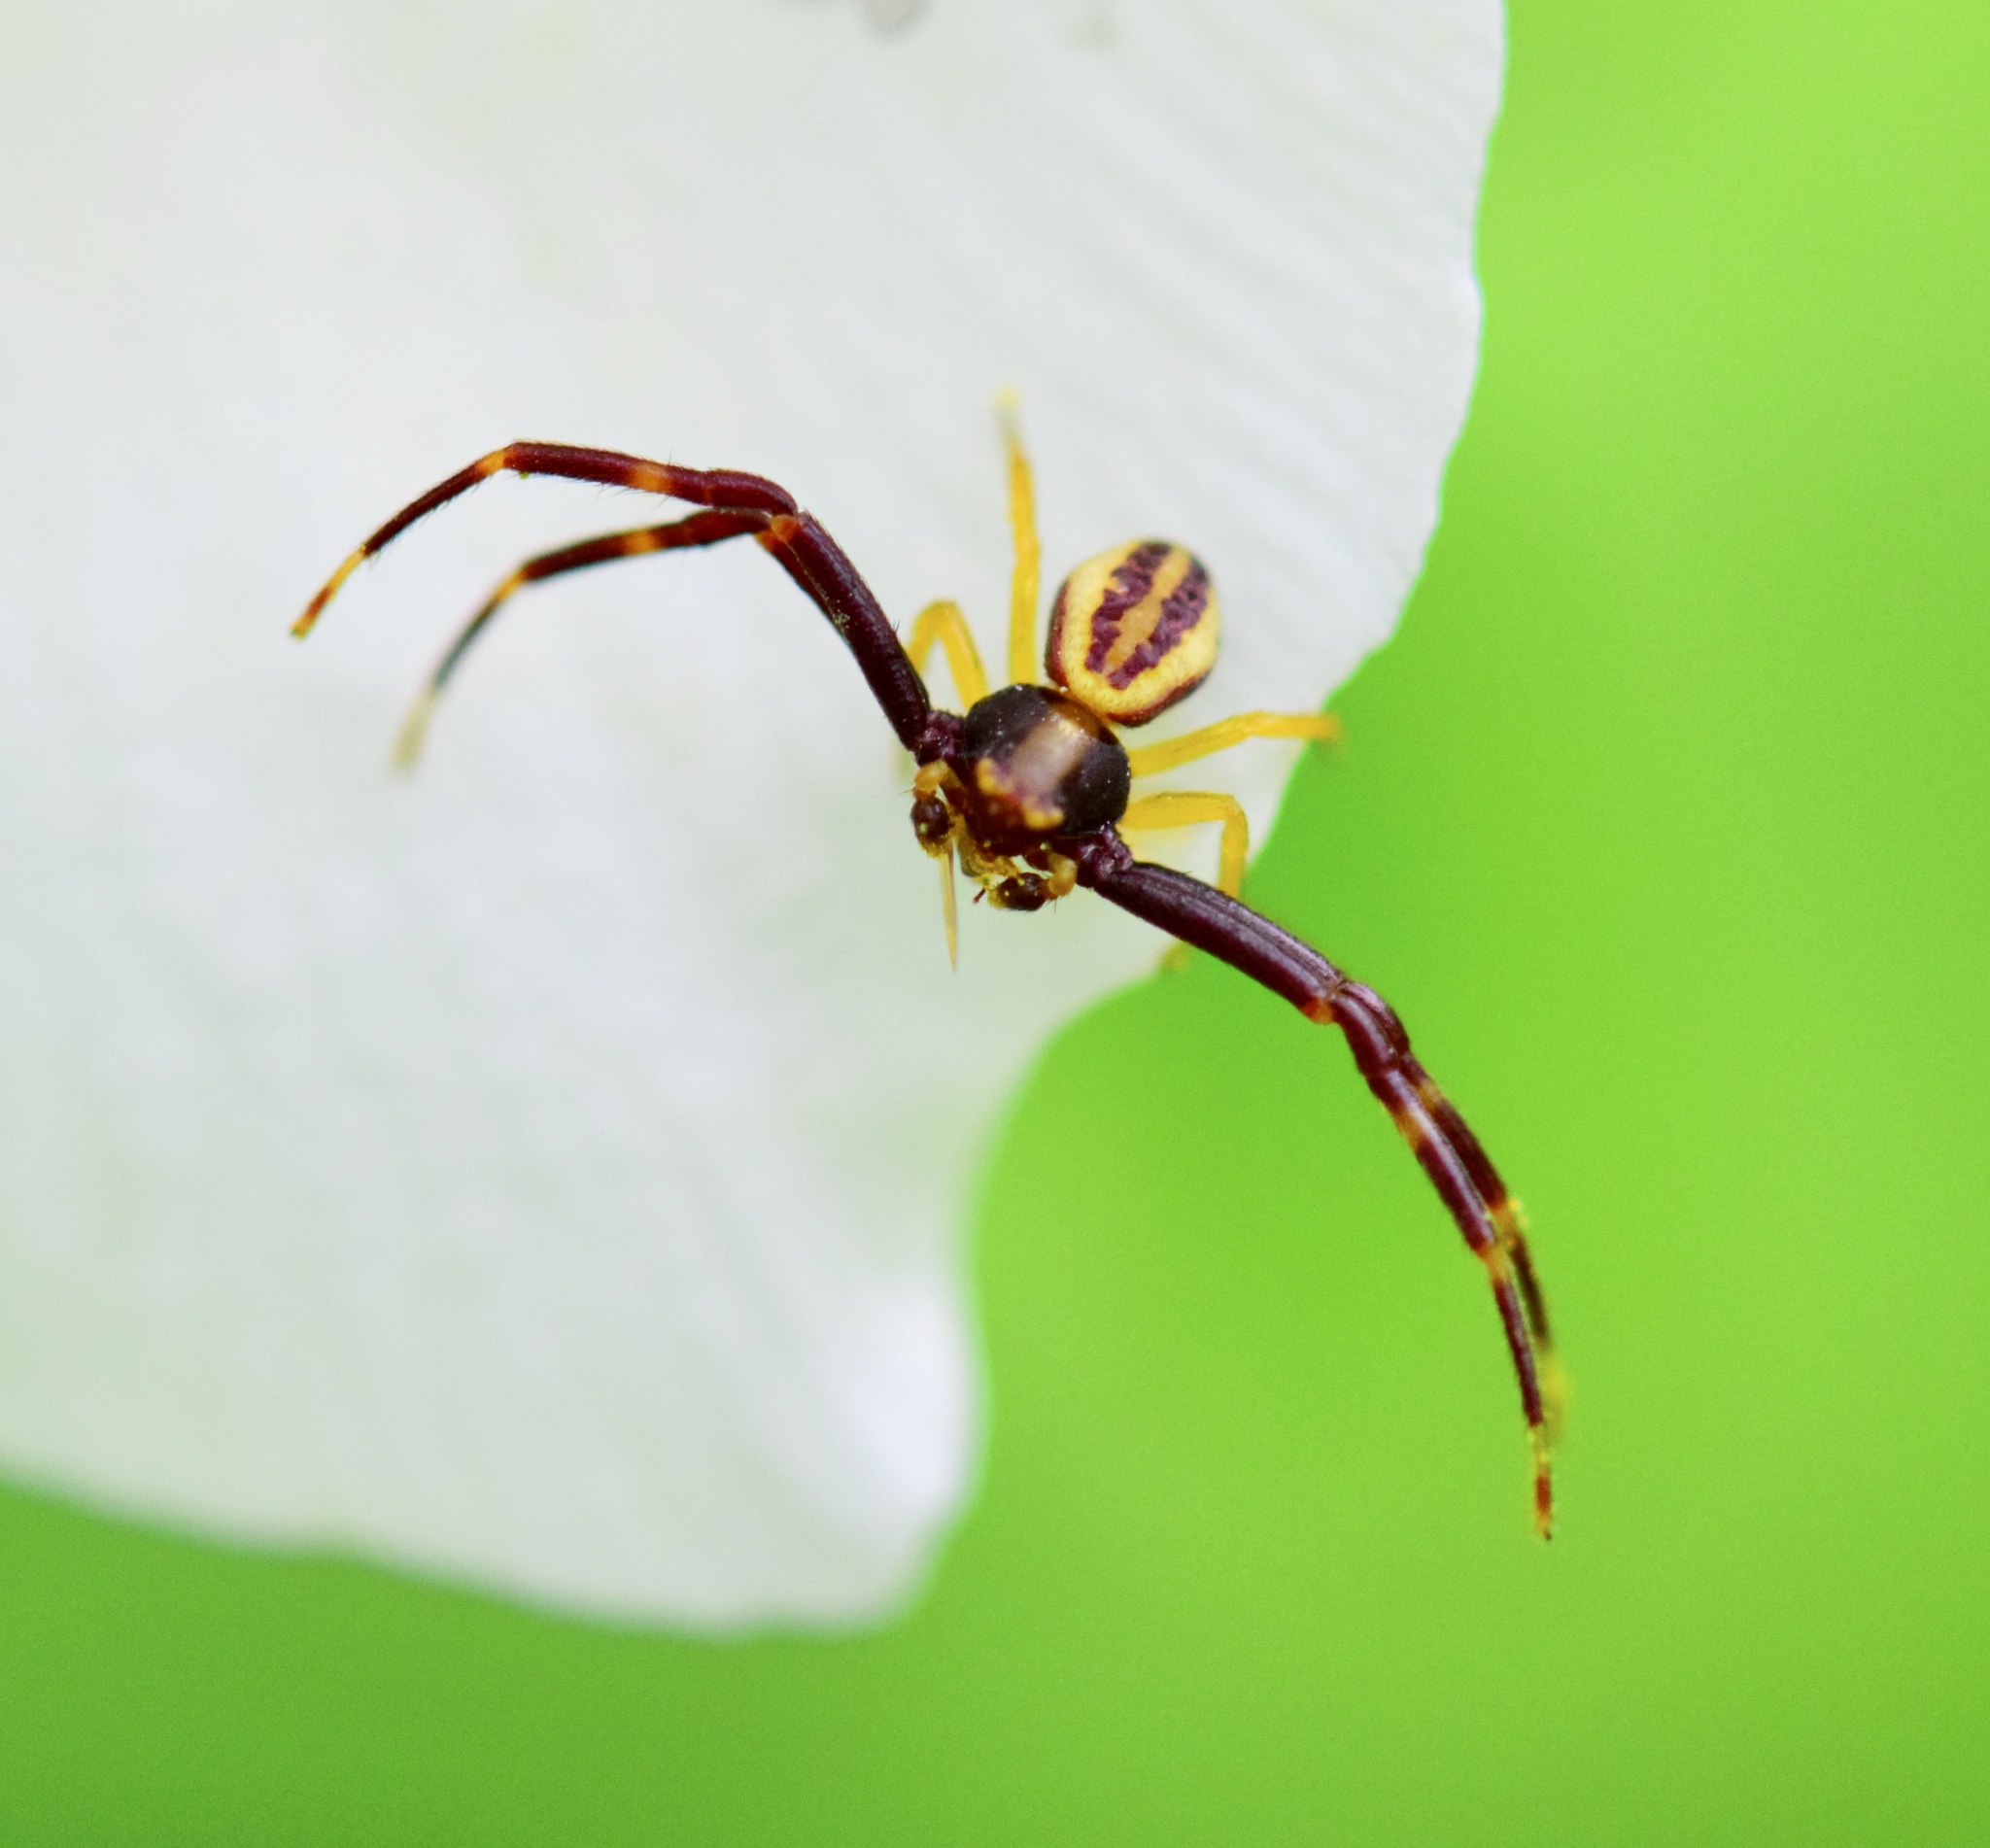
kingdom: Animalia
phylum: Arthropoda
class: Arachnida
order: Araneae
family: Thomisidae
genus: Misumena
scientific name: Misumena vatia
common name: Goldenrod crab spider
